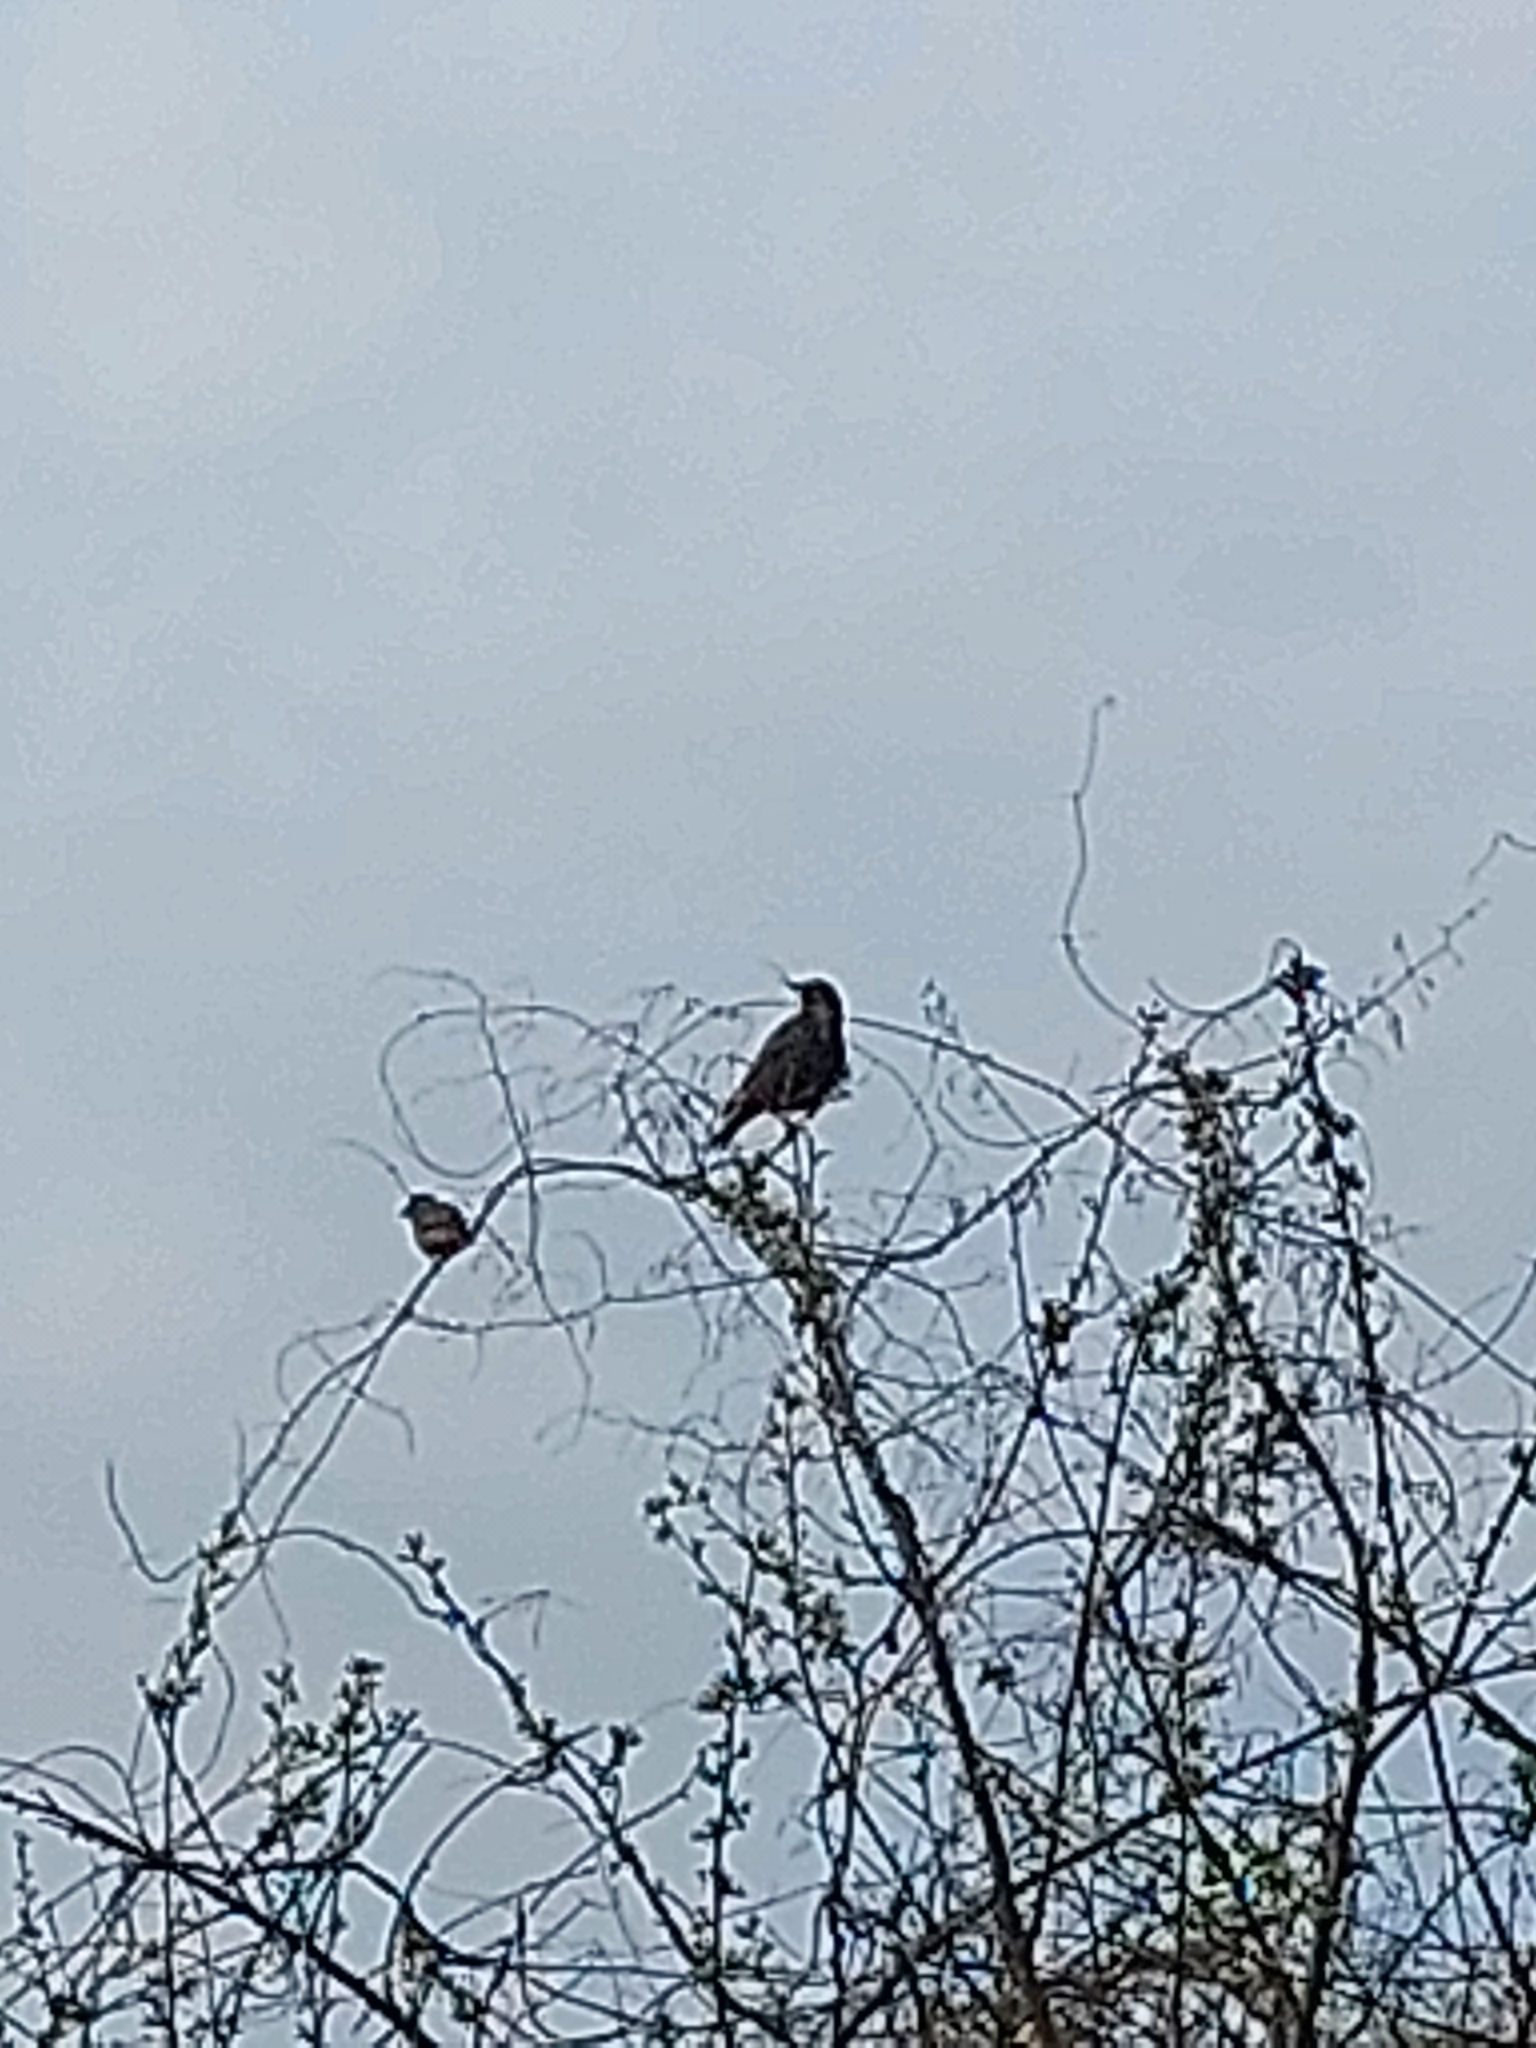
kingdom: Animalia
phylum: Chordata
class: Aves
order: Passeriformes
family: Sturnidae
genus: Sturnus
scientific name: Sturnus vulgaris
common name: Common starling
